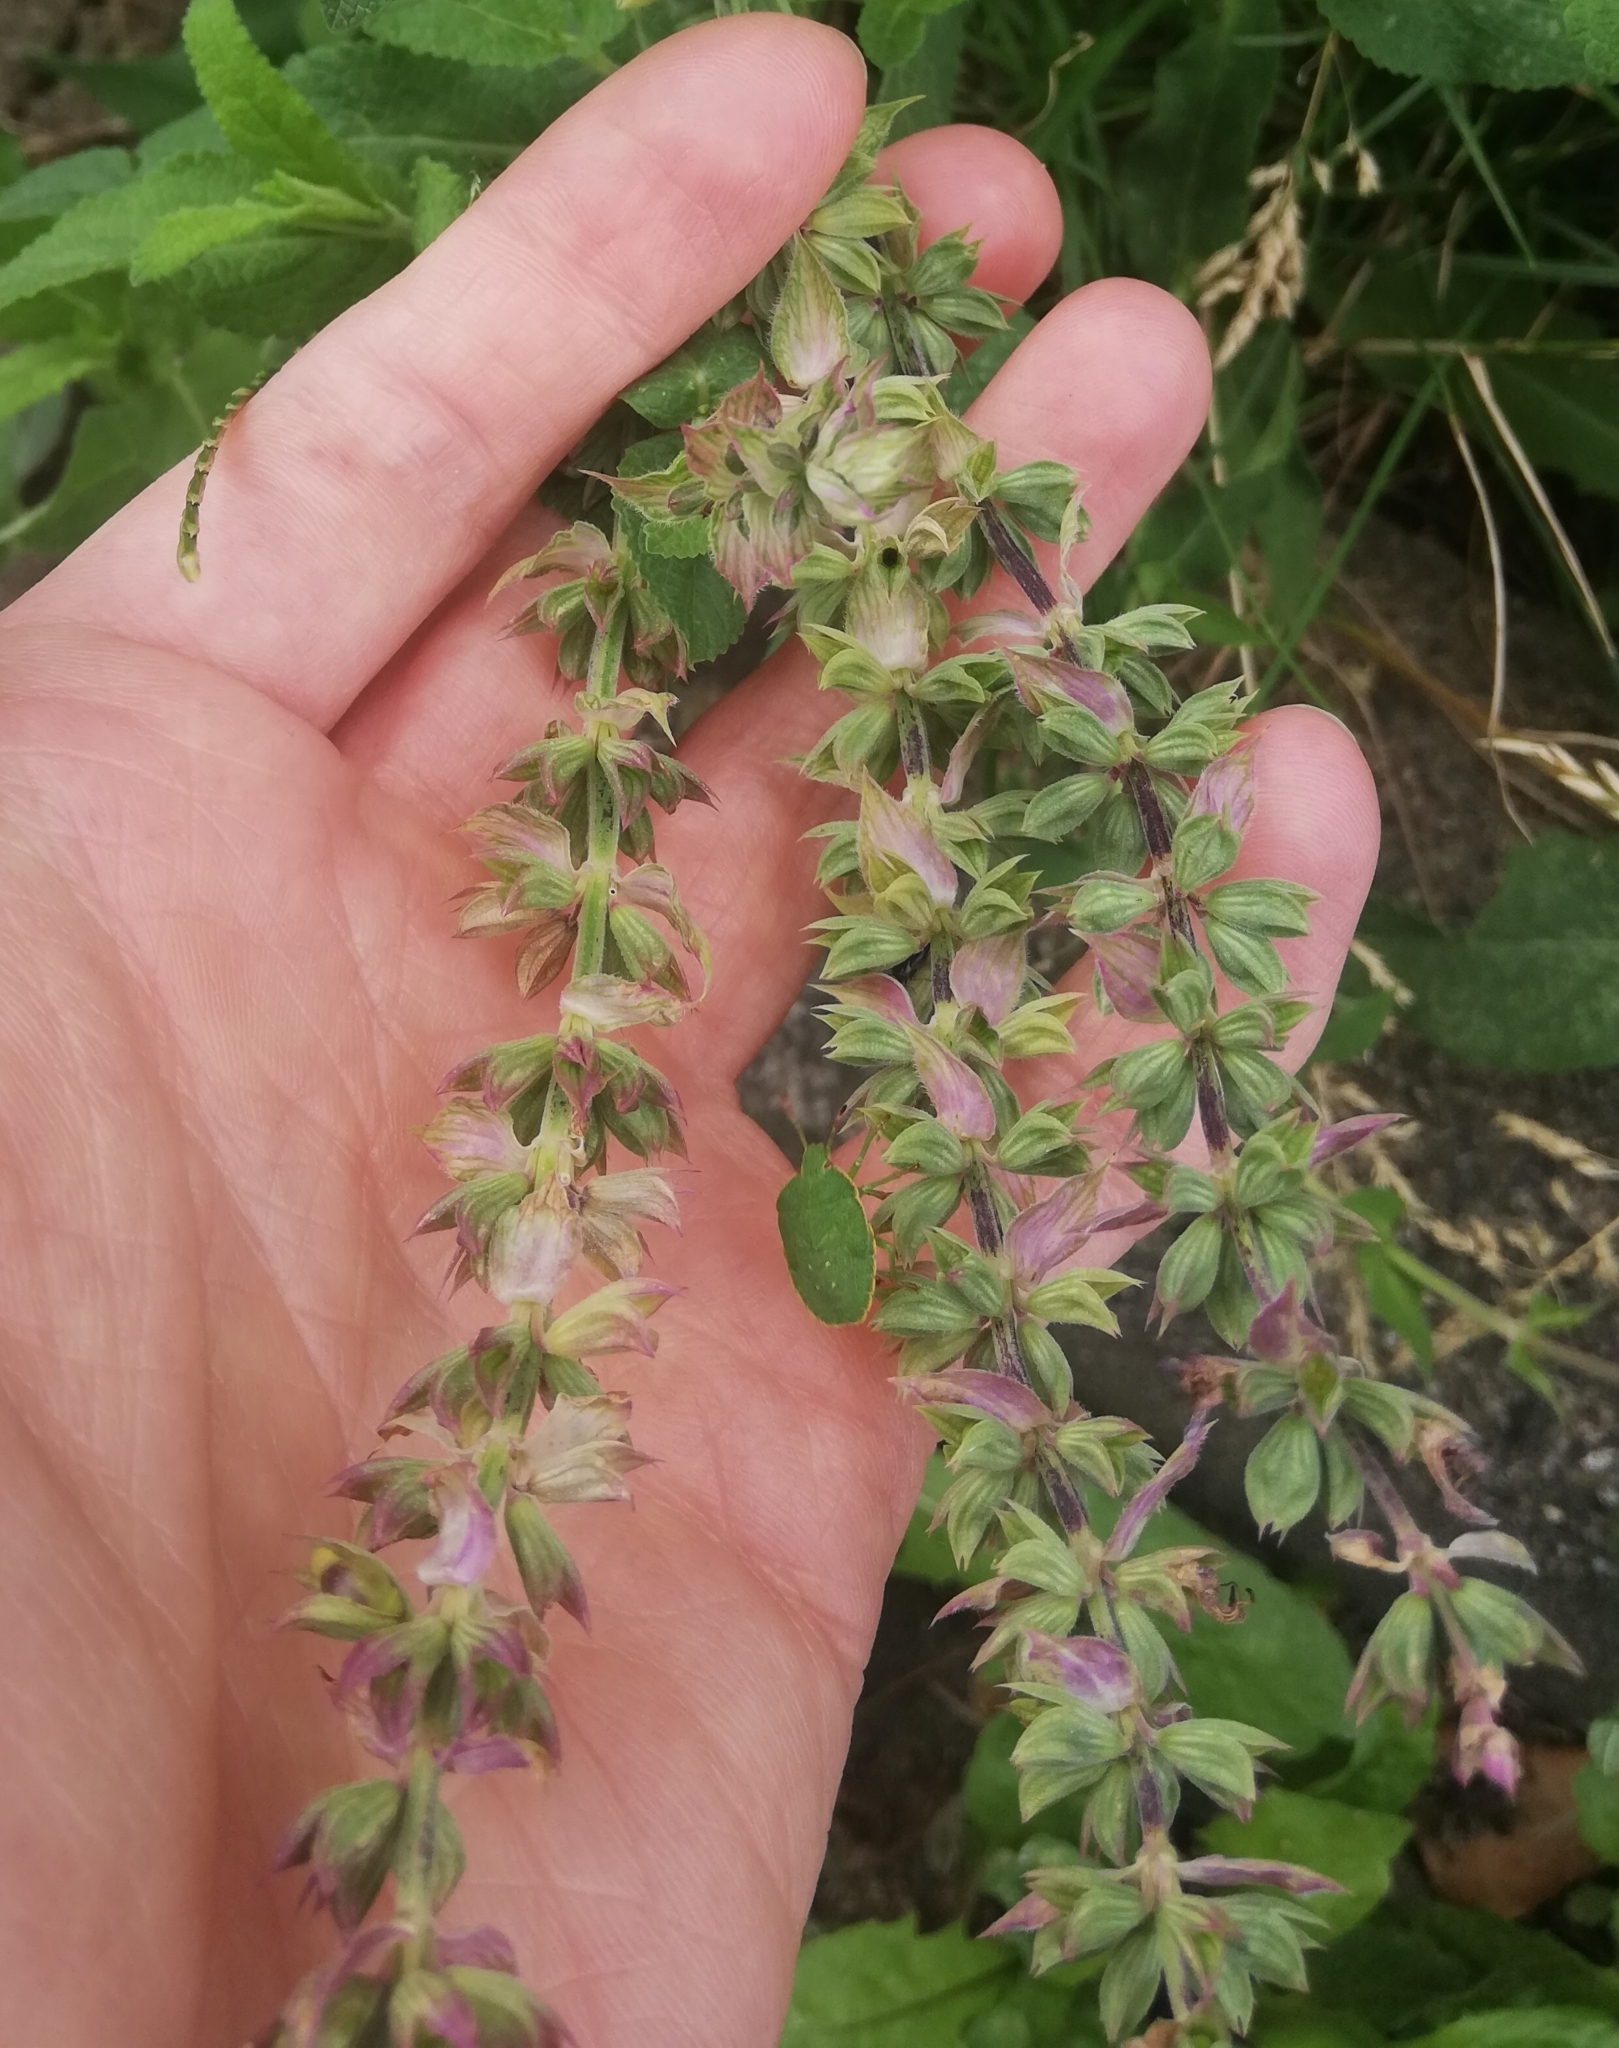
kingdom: Plantae
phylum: Tracheophyta
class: Magnoliopsida
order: Lamiales
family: Lamiaceae
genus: Salvia
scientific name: Salvia pratensis
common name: Meadow sage
